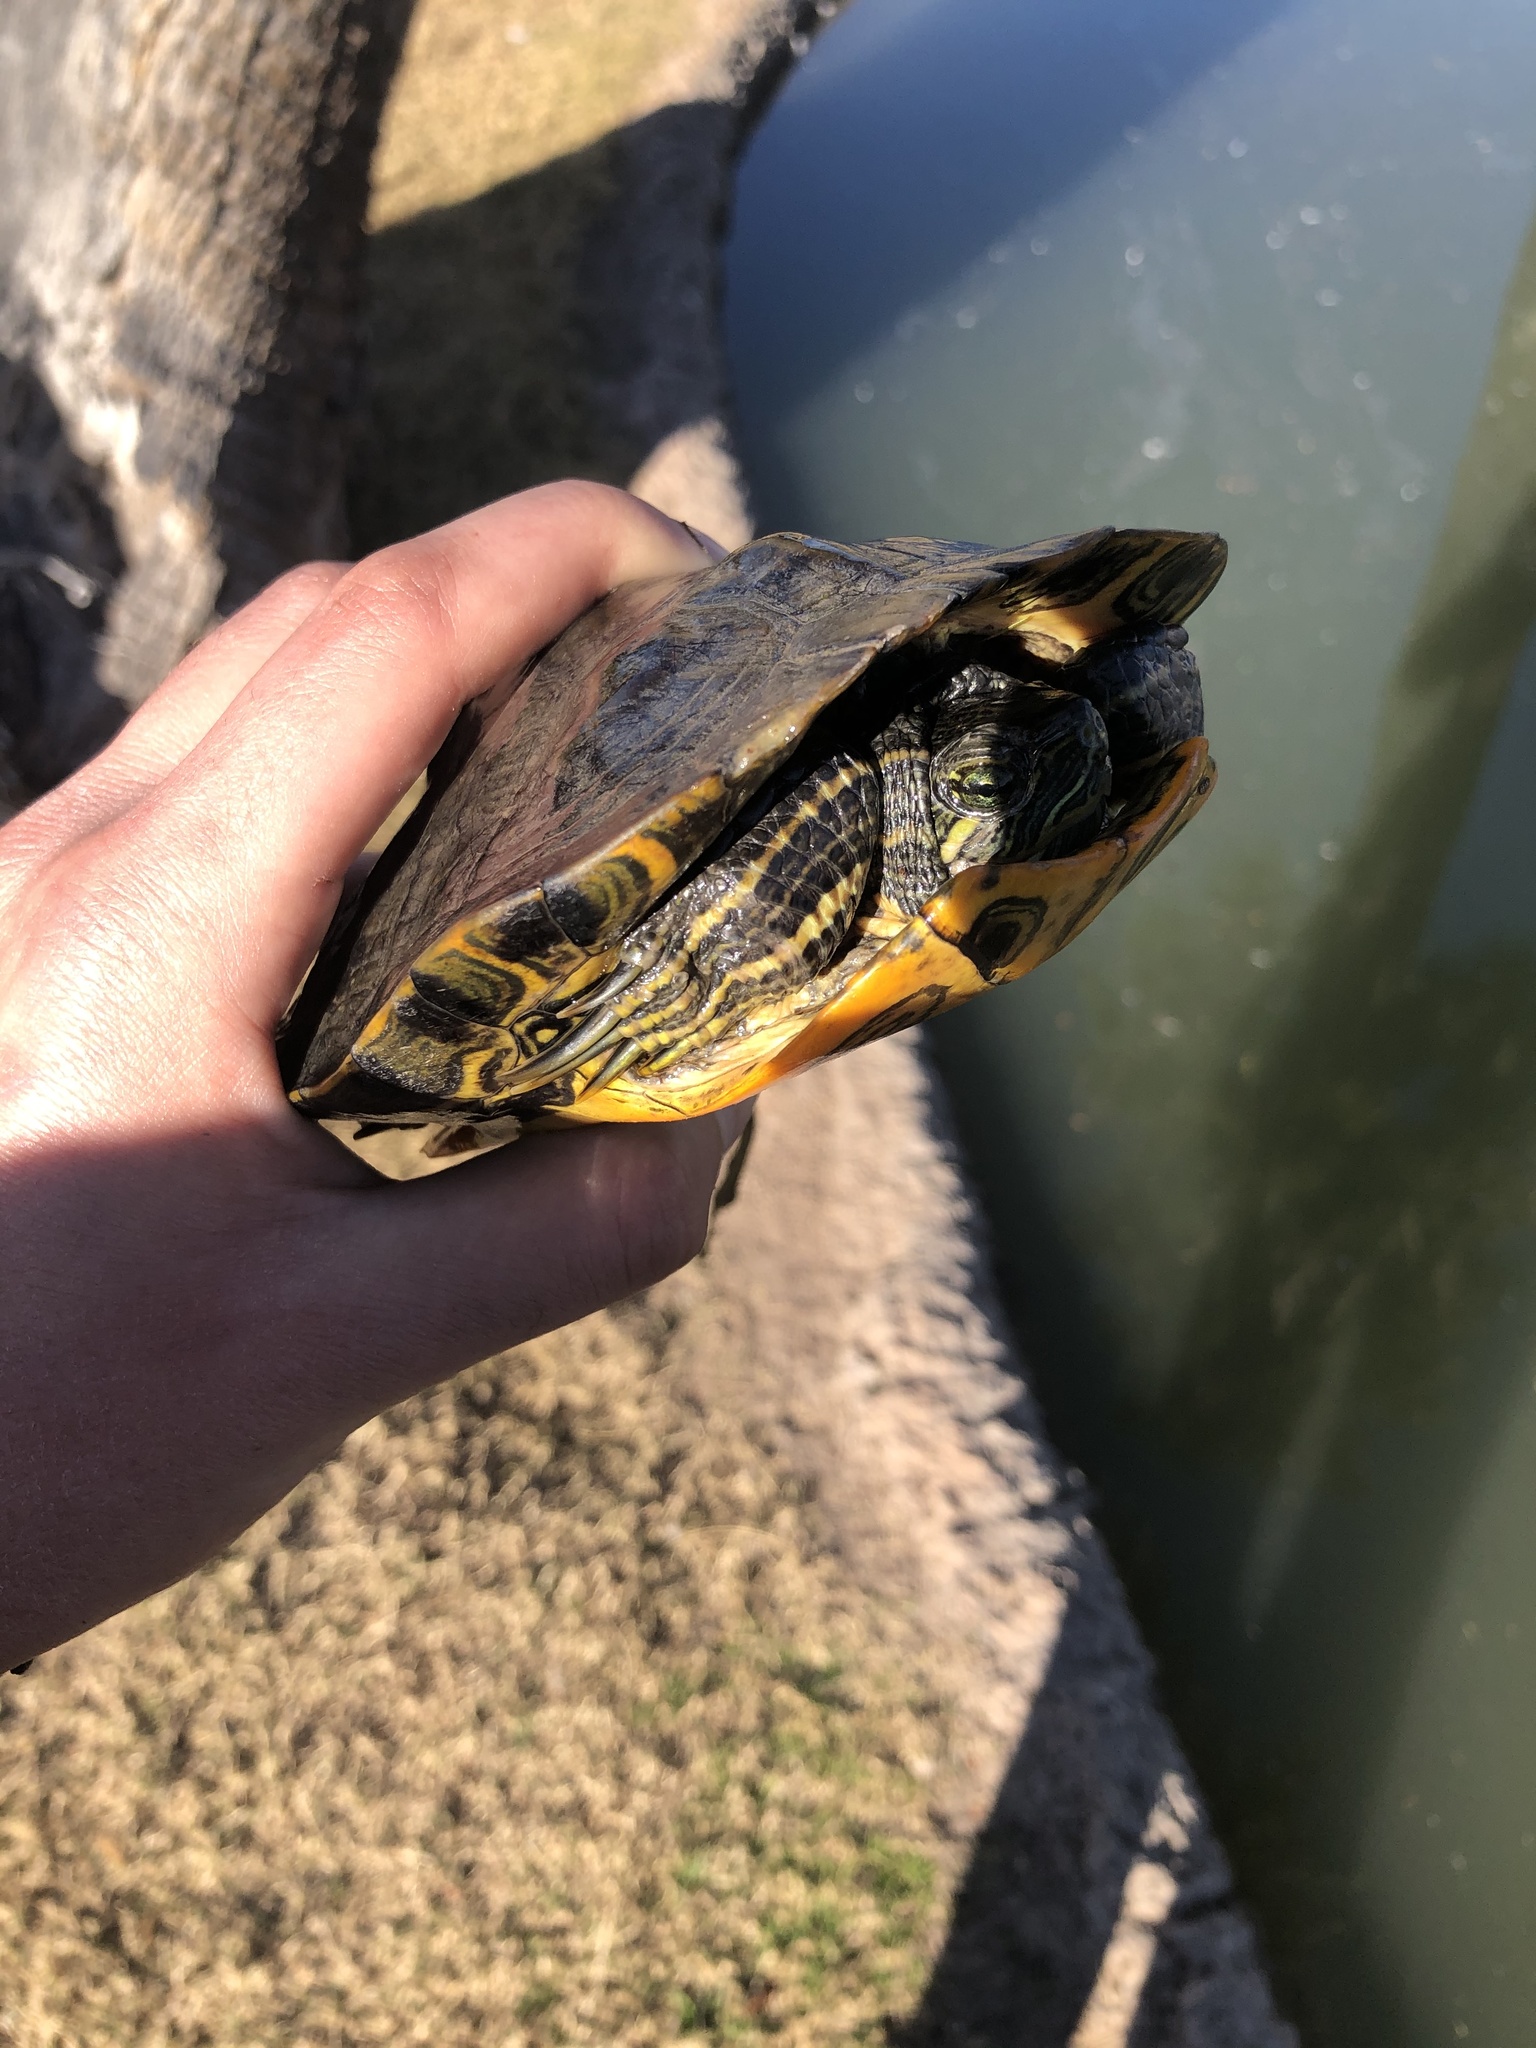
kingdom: Animalia
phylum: Chordata
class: Testudines
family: Emydidae
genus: Trachemys
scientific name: Trachemys scripta
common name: Slider
